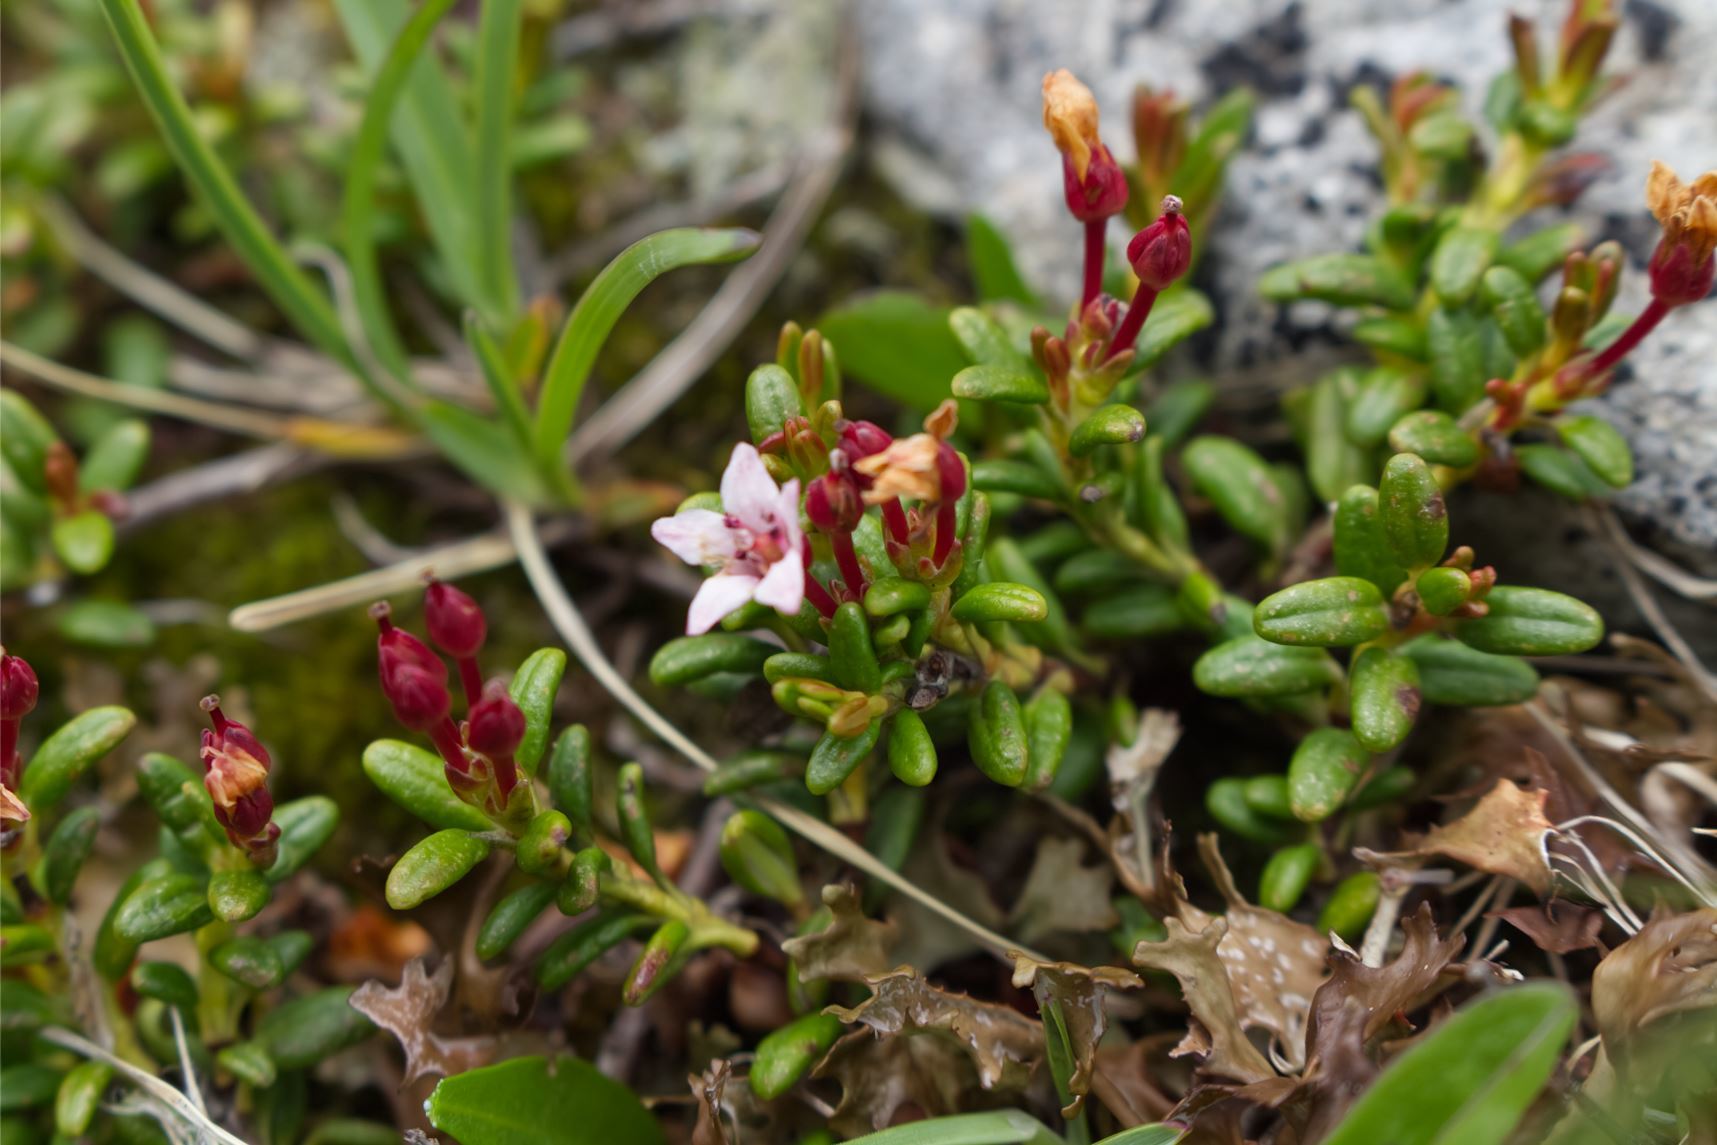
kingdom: Plantae
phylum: Tracheophyta
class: Magnoliopsida
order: Ericales
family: Ericaceae
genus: Kalmia
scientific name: Kalmia procumbens
